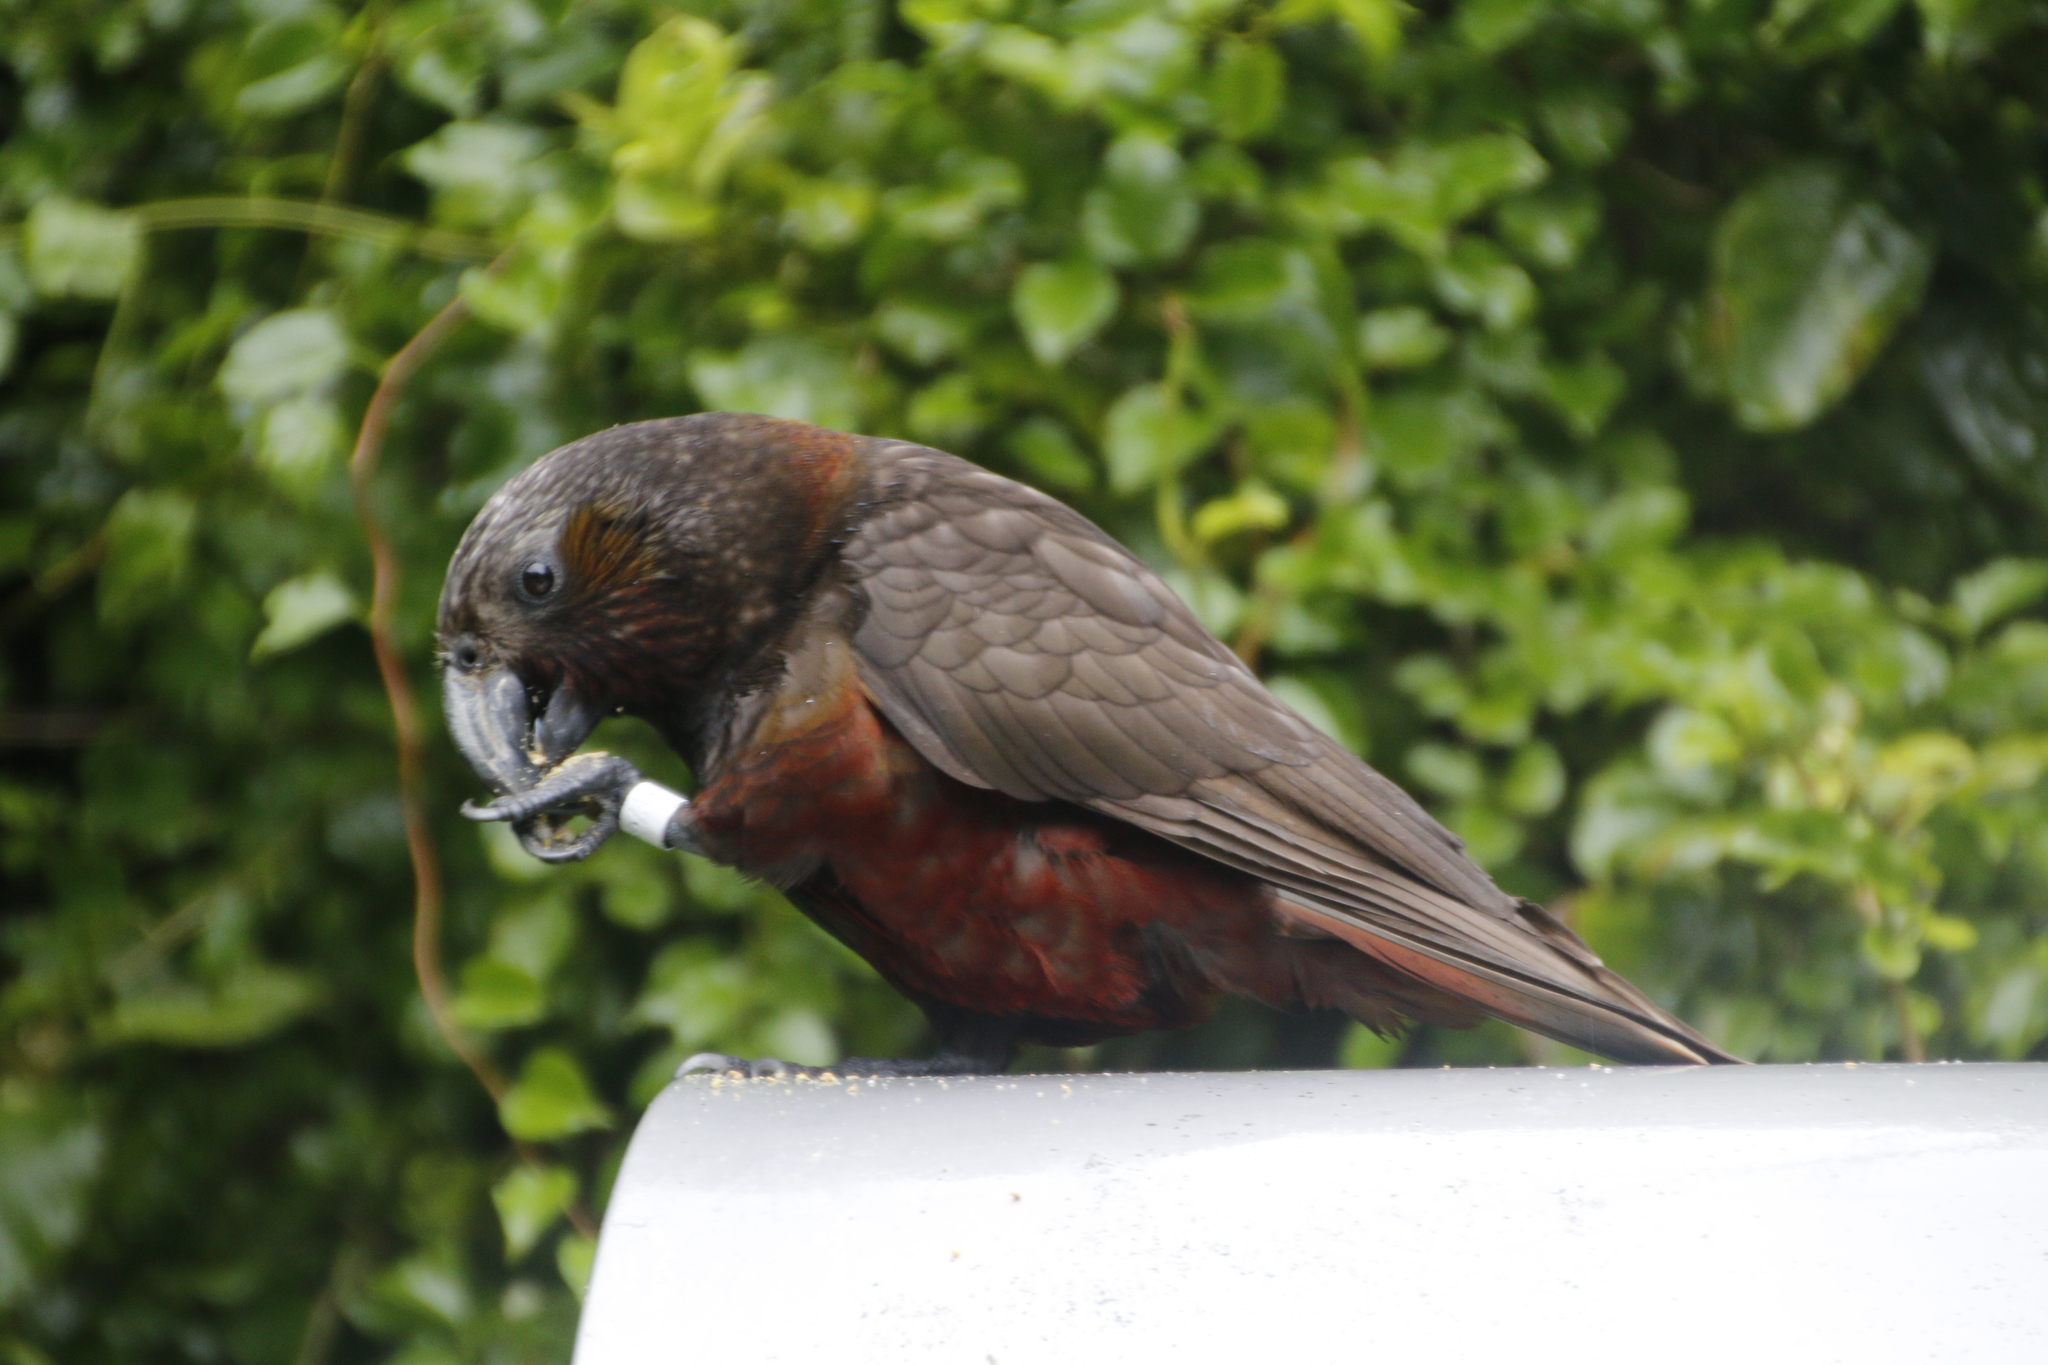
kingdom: Animalia
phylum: Chordata
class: Aves
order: Psittaciformes
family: Psittacidae
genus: Nestor
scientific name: Nestor meridionalis
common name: New zealand kaka
